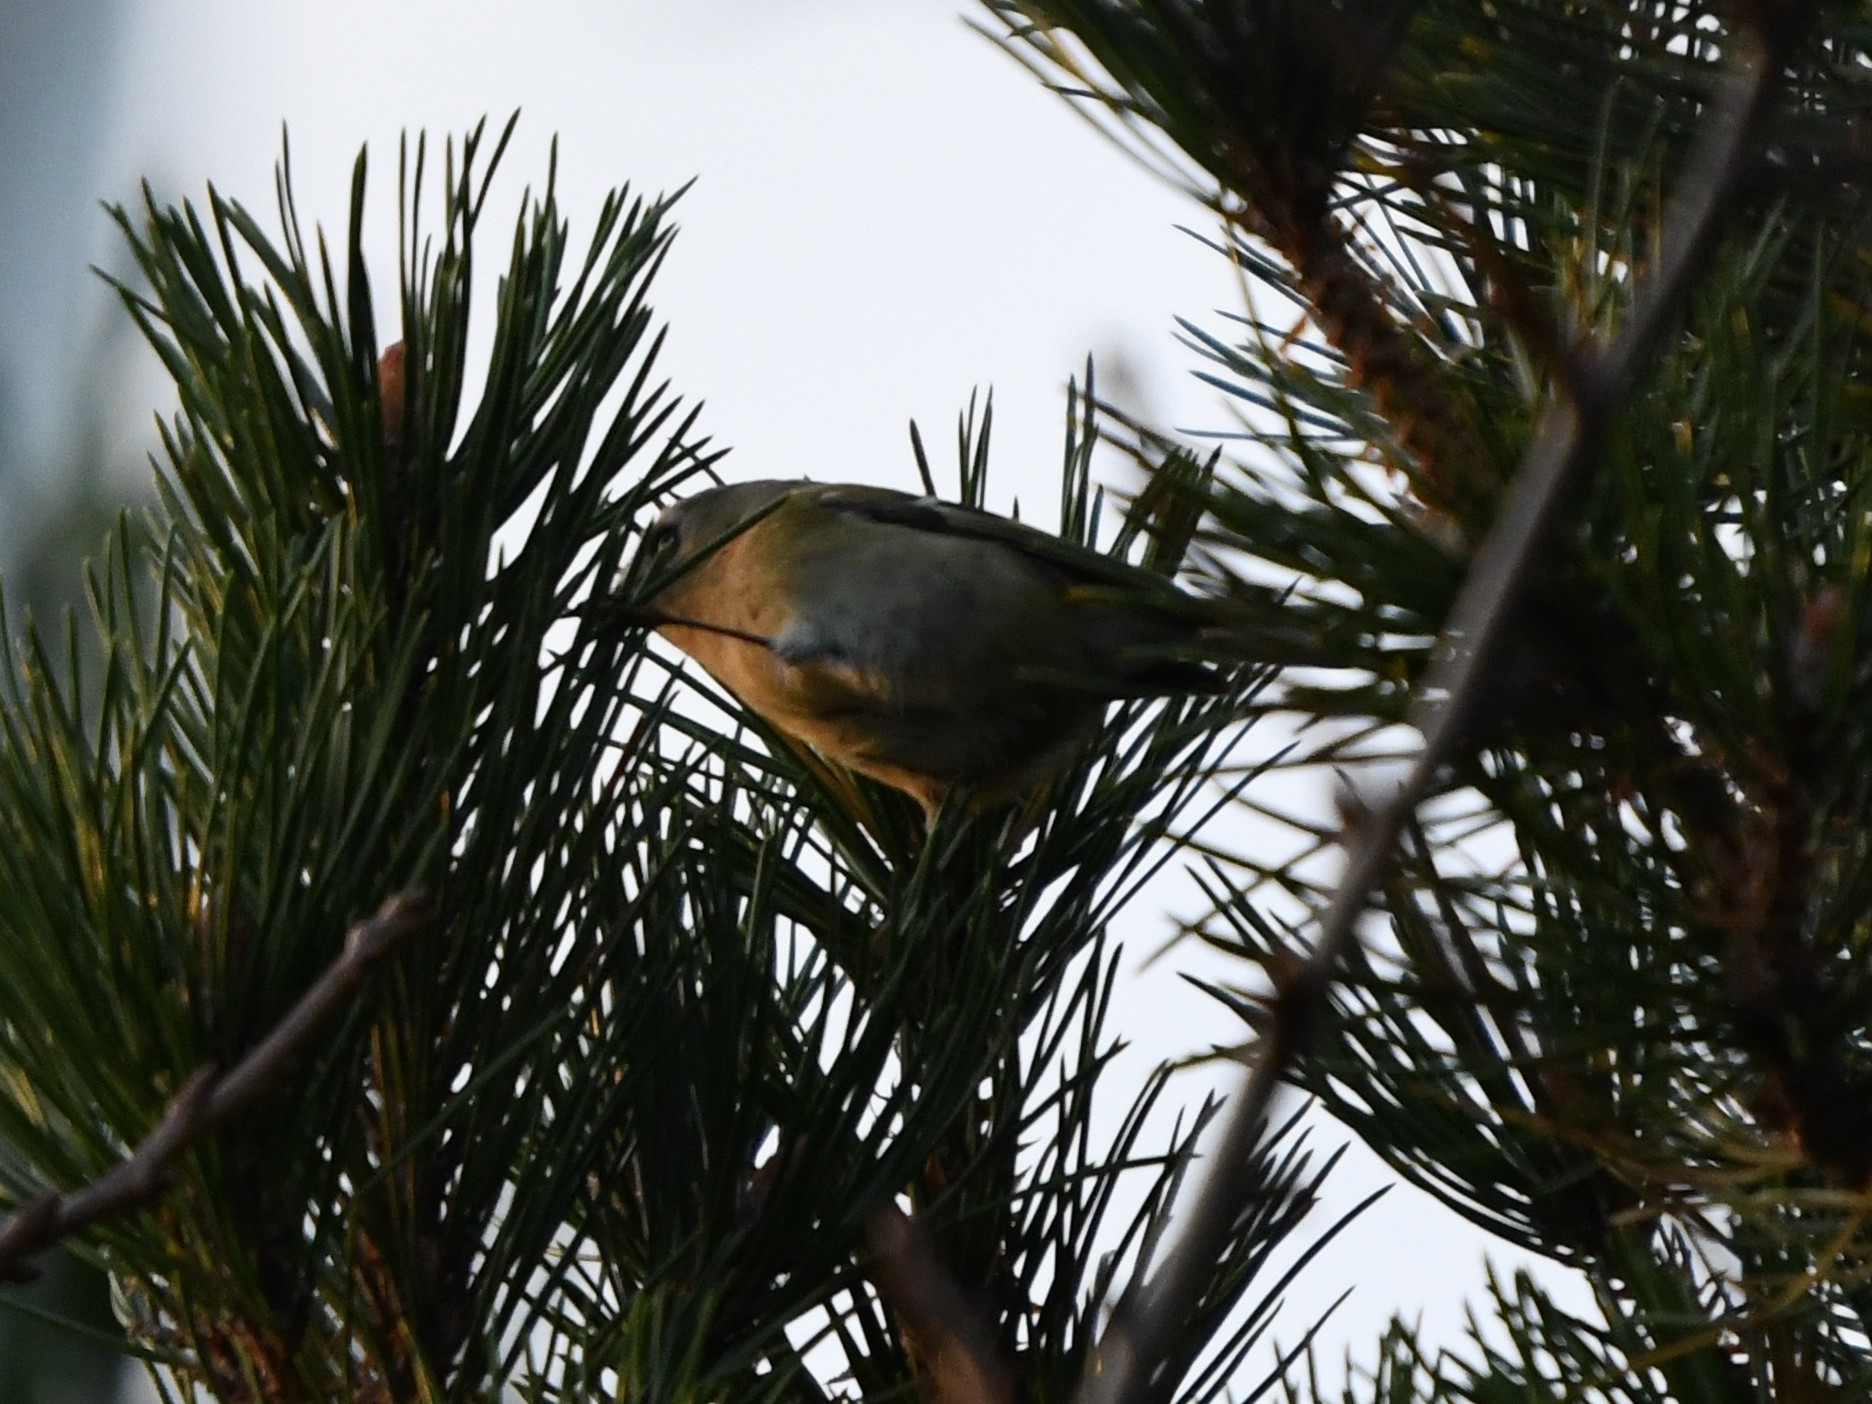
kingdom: Animalia
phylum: Chordata
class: Aves
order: Passeriformes
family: Regulidae
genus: Regulus
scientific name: Regulus regulus
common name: Goldcrest
